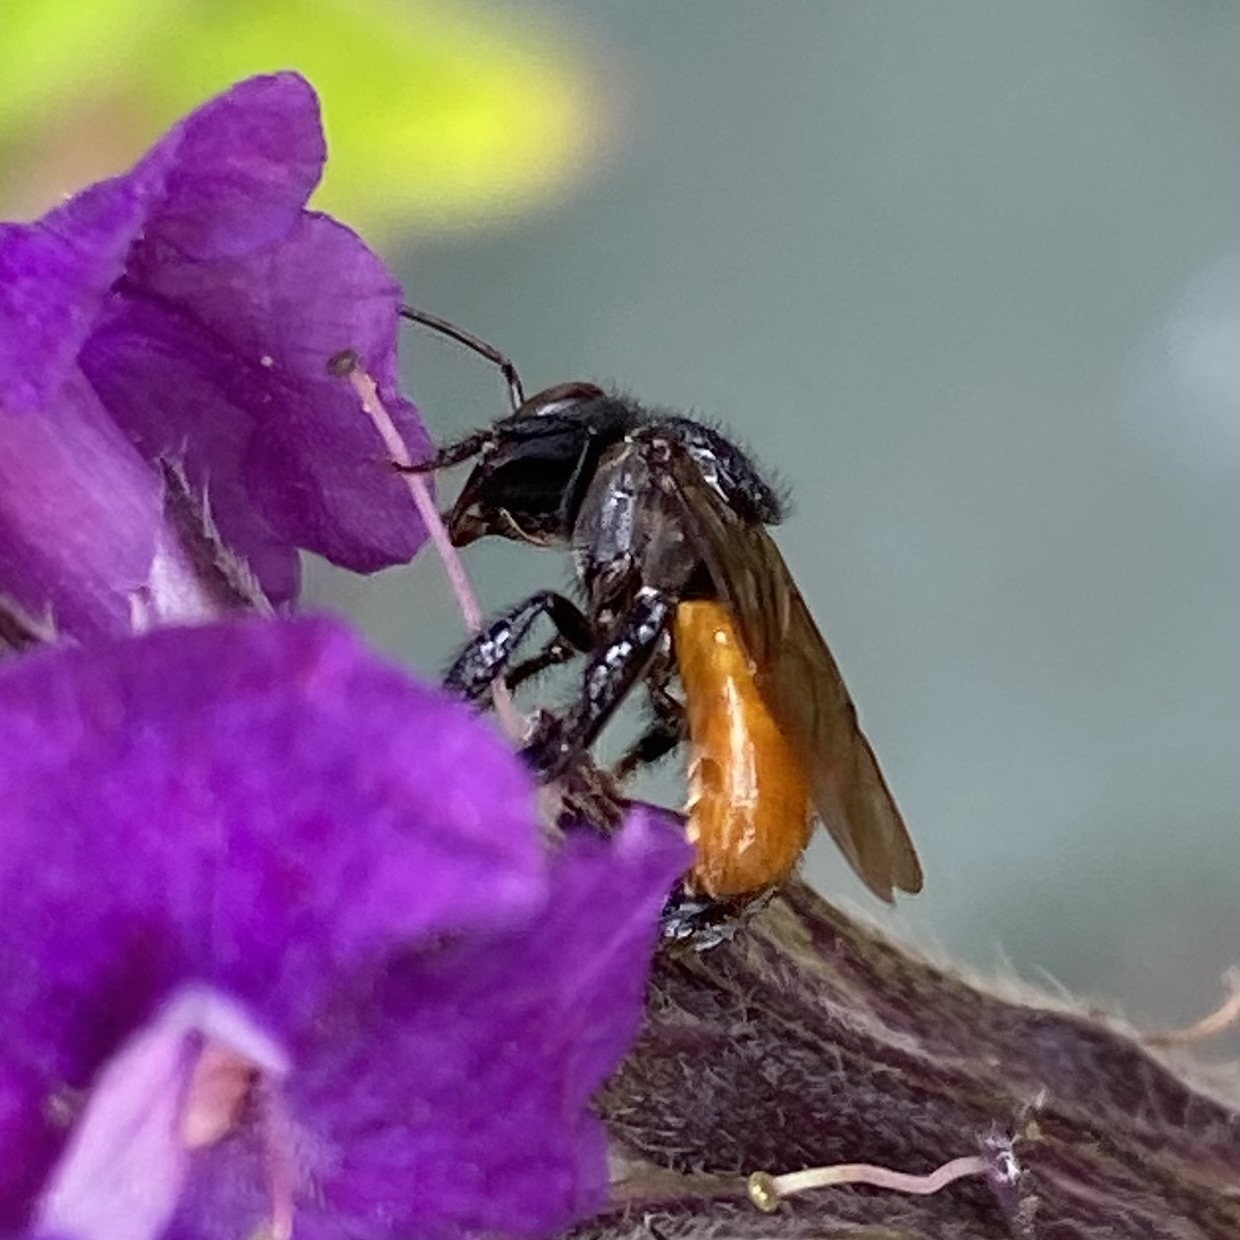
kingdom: Animalia
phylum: Arthropoda
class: Insecta
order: Hymenoptera
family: Apidae
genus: Trigona
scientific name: Trigona fulviventris
